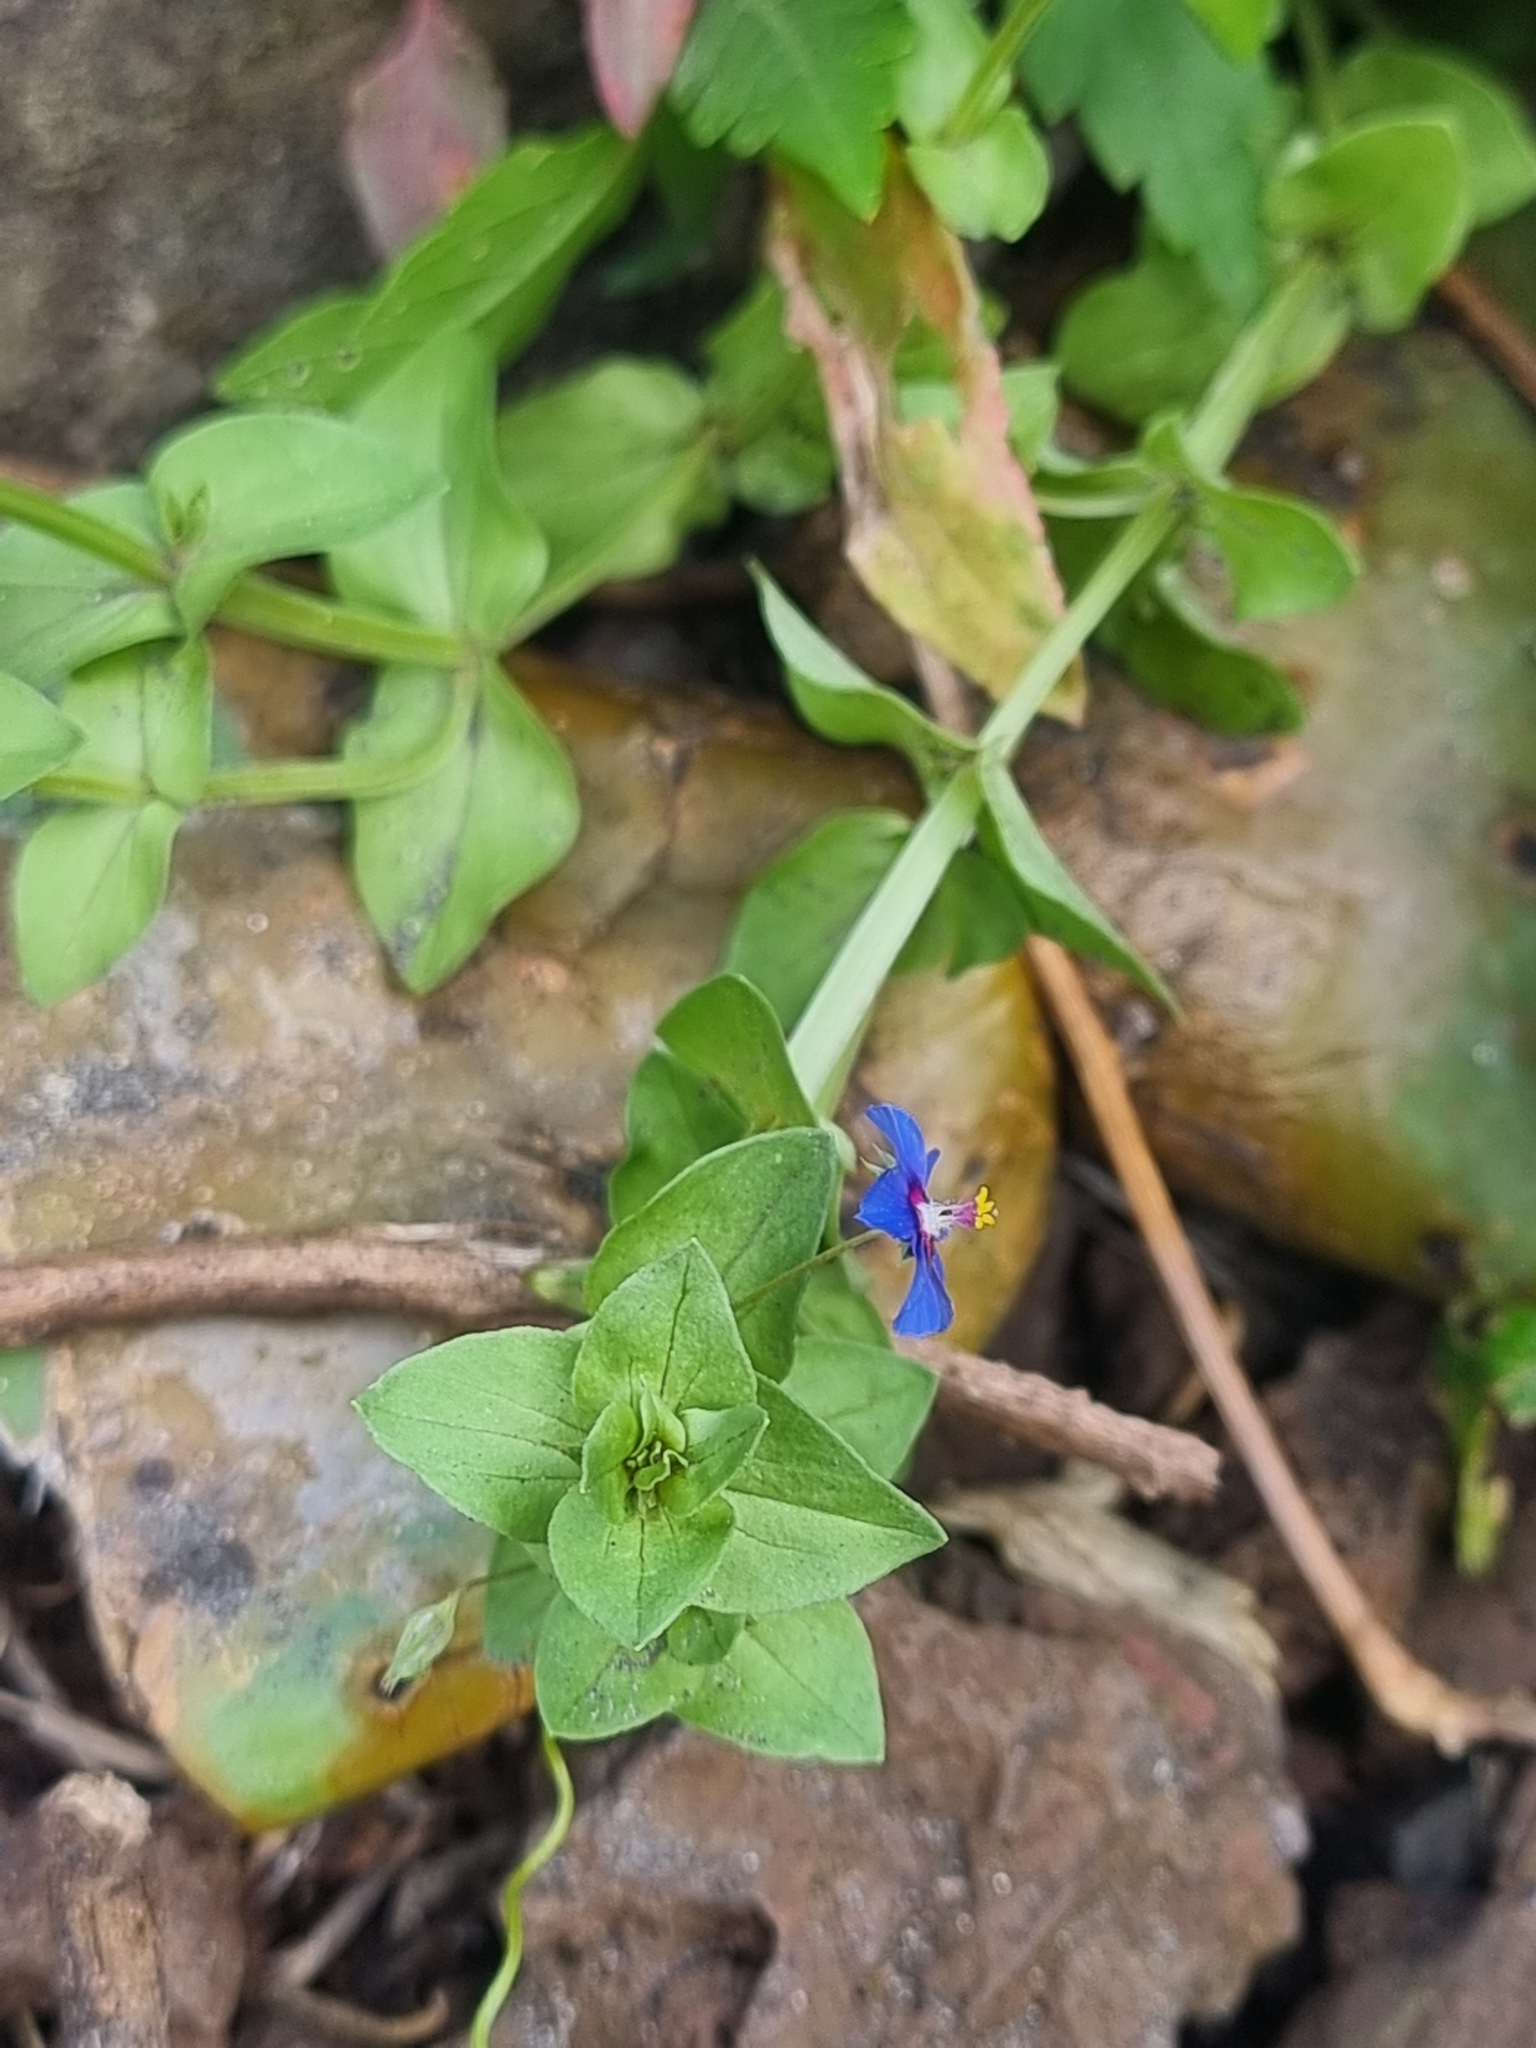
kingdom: Plantae
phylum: Tracheophyta
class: Magnoliopsida
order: Ericales
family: Primulaceae
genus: Lysimachia
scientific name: Lysimachia loeflingii
